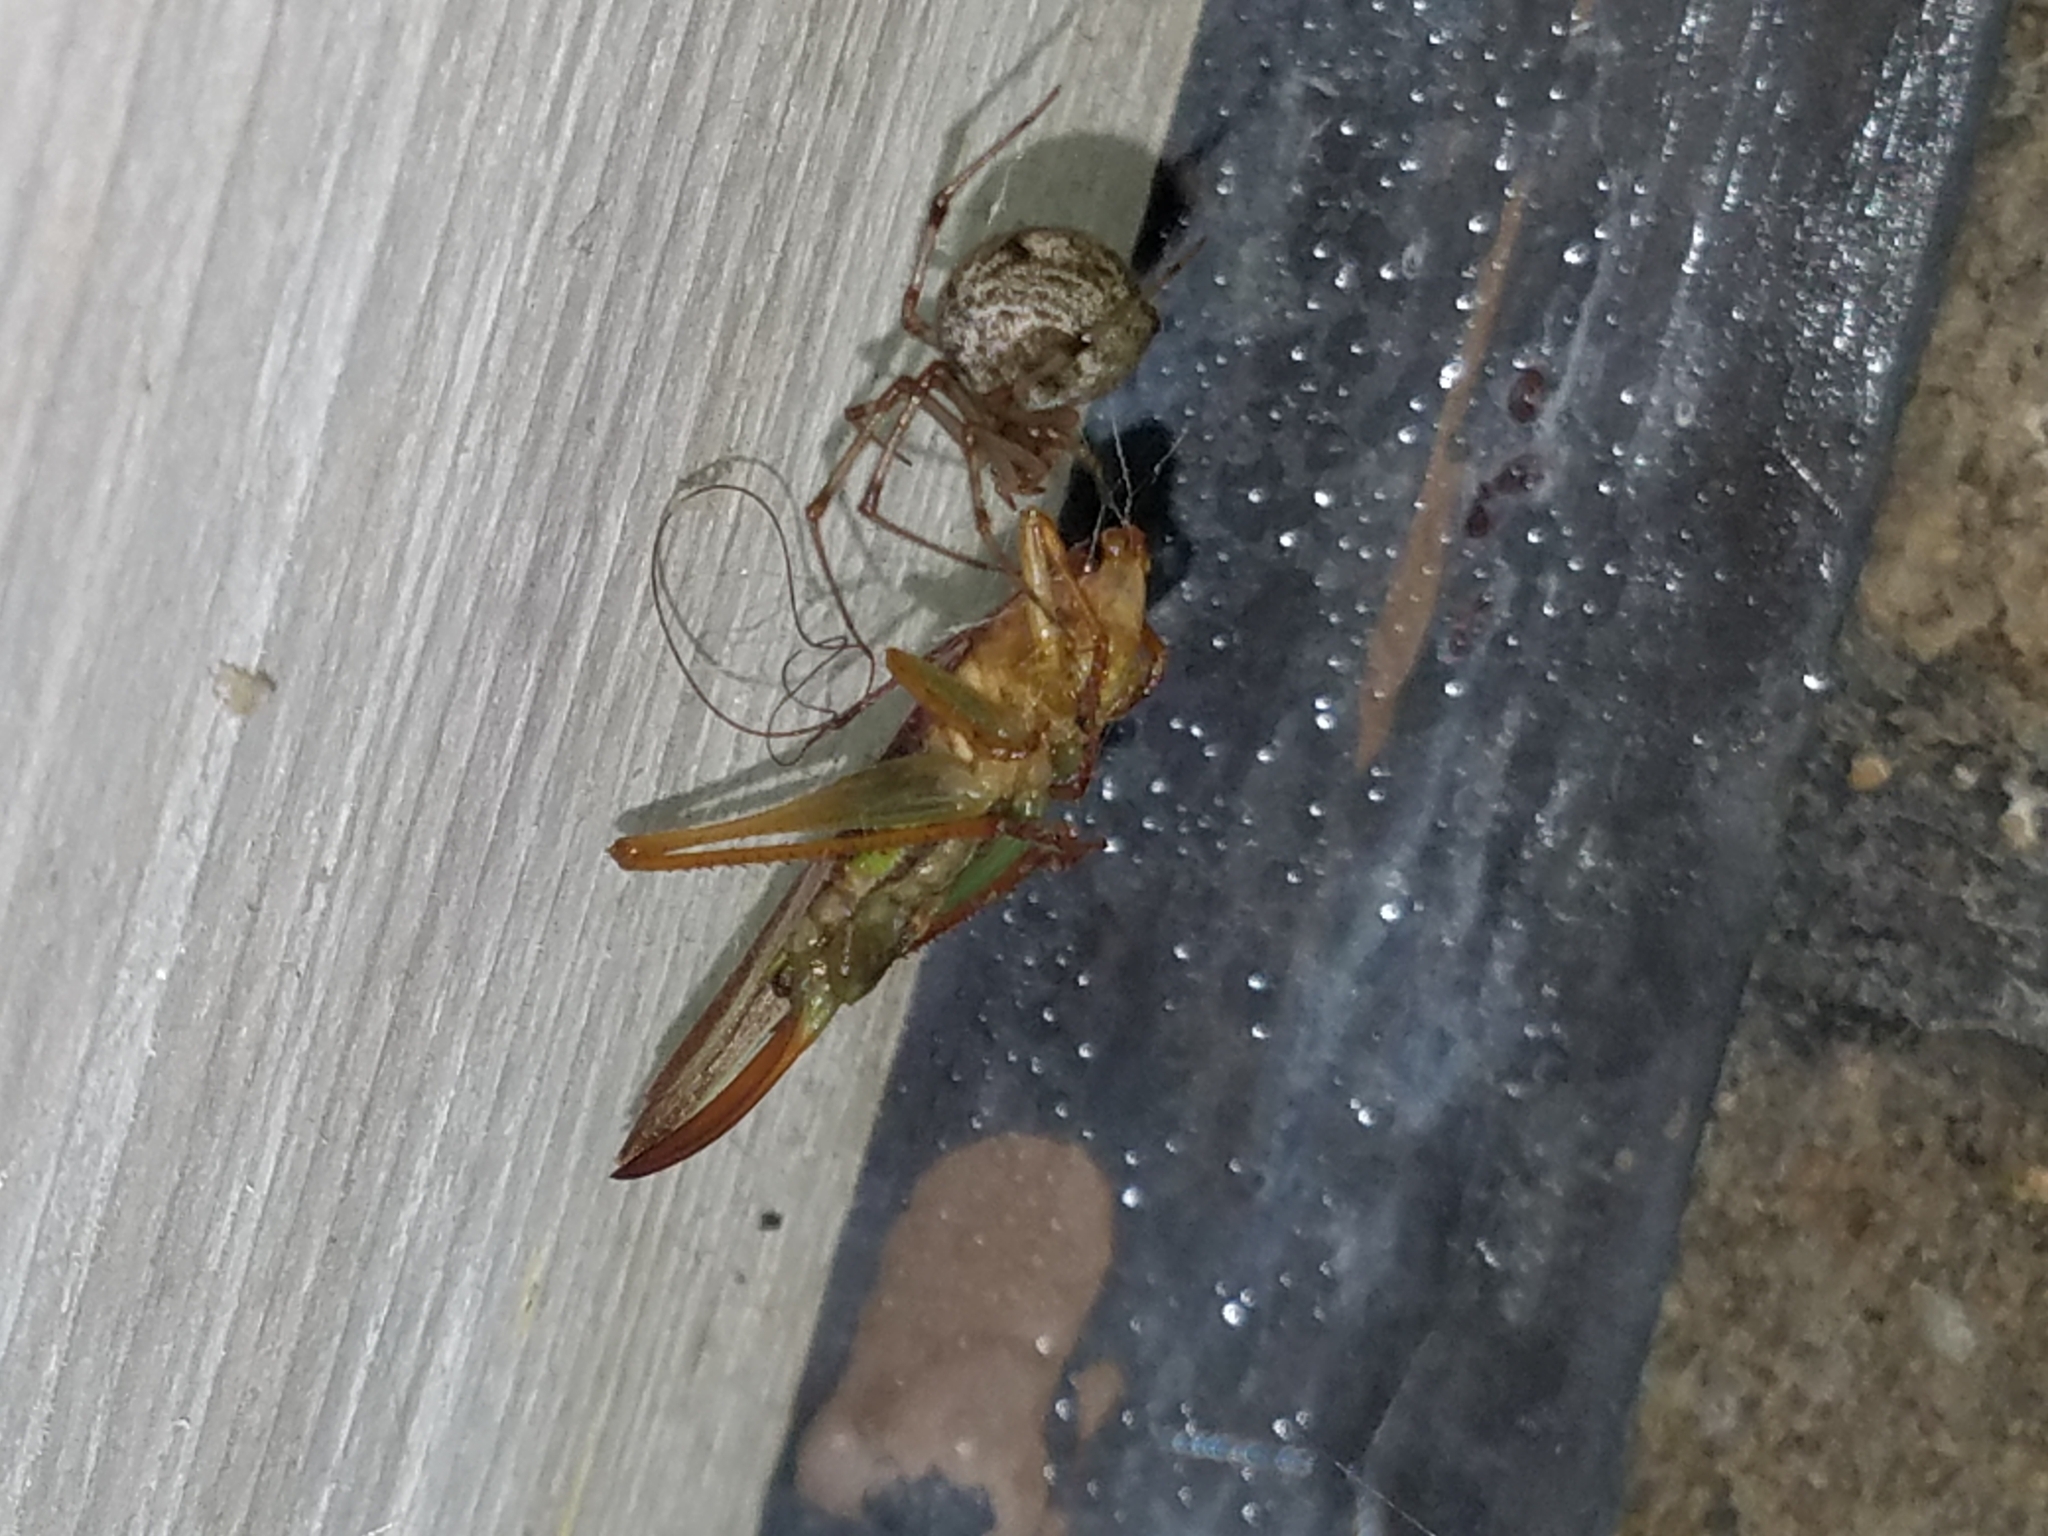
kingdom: Animalia
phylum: Arthropoda
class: Insecta
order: Orthoptera
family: Tettigoniidae
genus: Orchelimum
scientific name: Orchelimum minor
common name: Lesser pine meadow katydid
